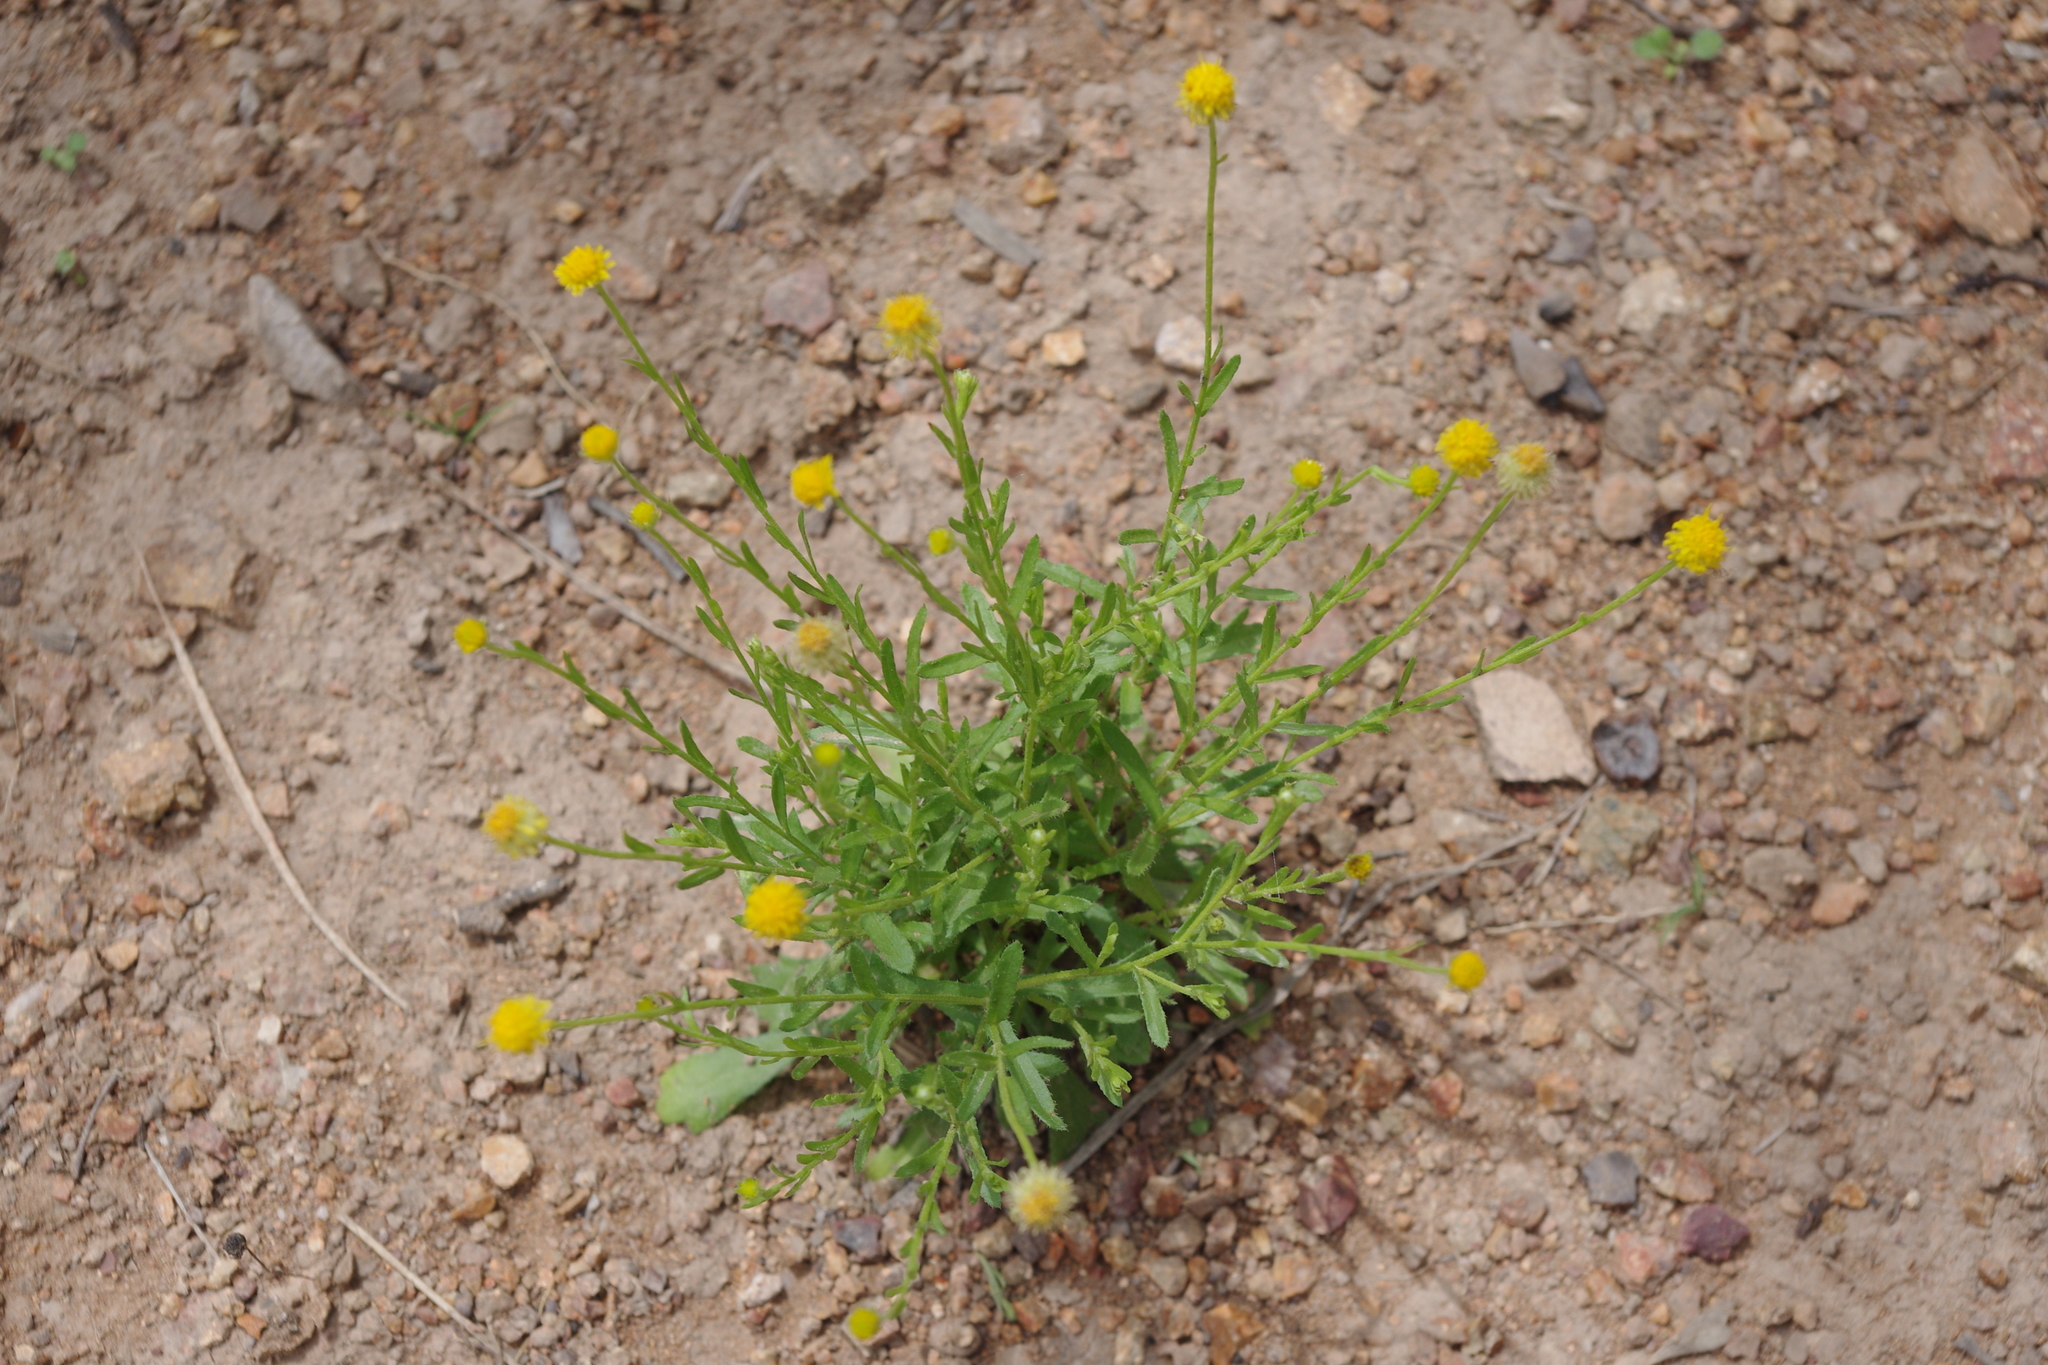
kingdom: Plantae
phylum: Tracheophyta
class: Magnoliopsida
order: Asterales
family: Asteraceae
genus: Calotis
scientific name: Calotis lappulacea
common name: Bur daisy
